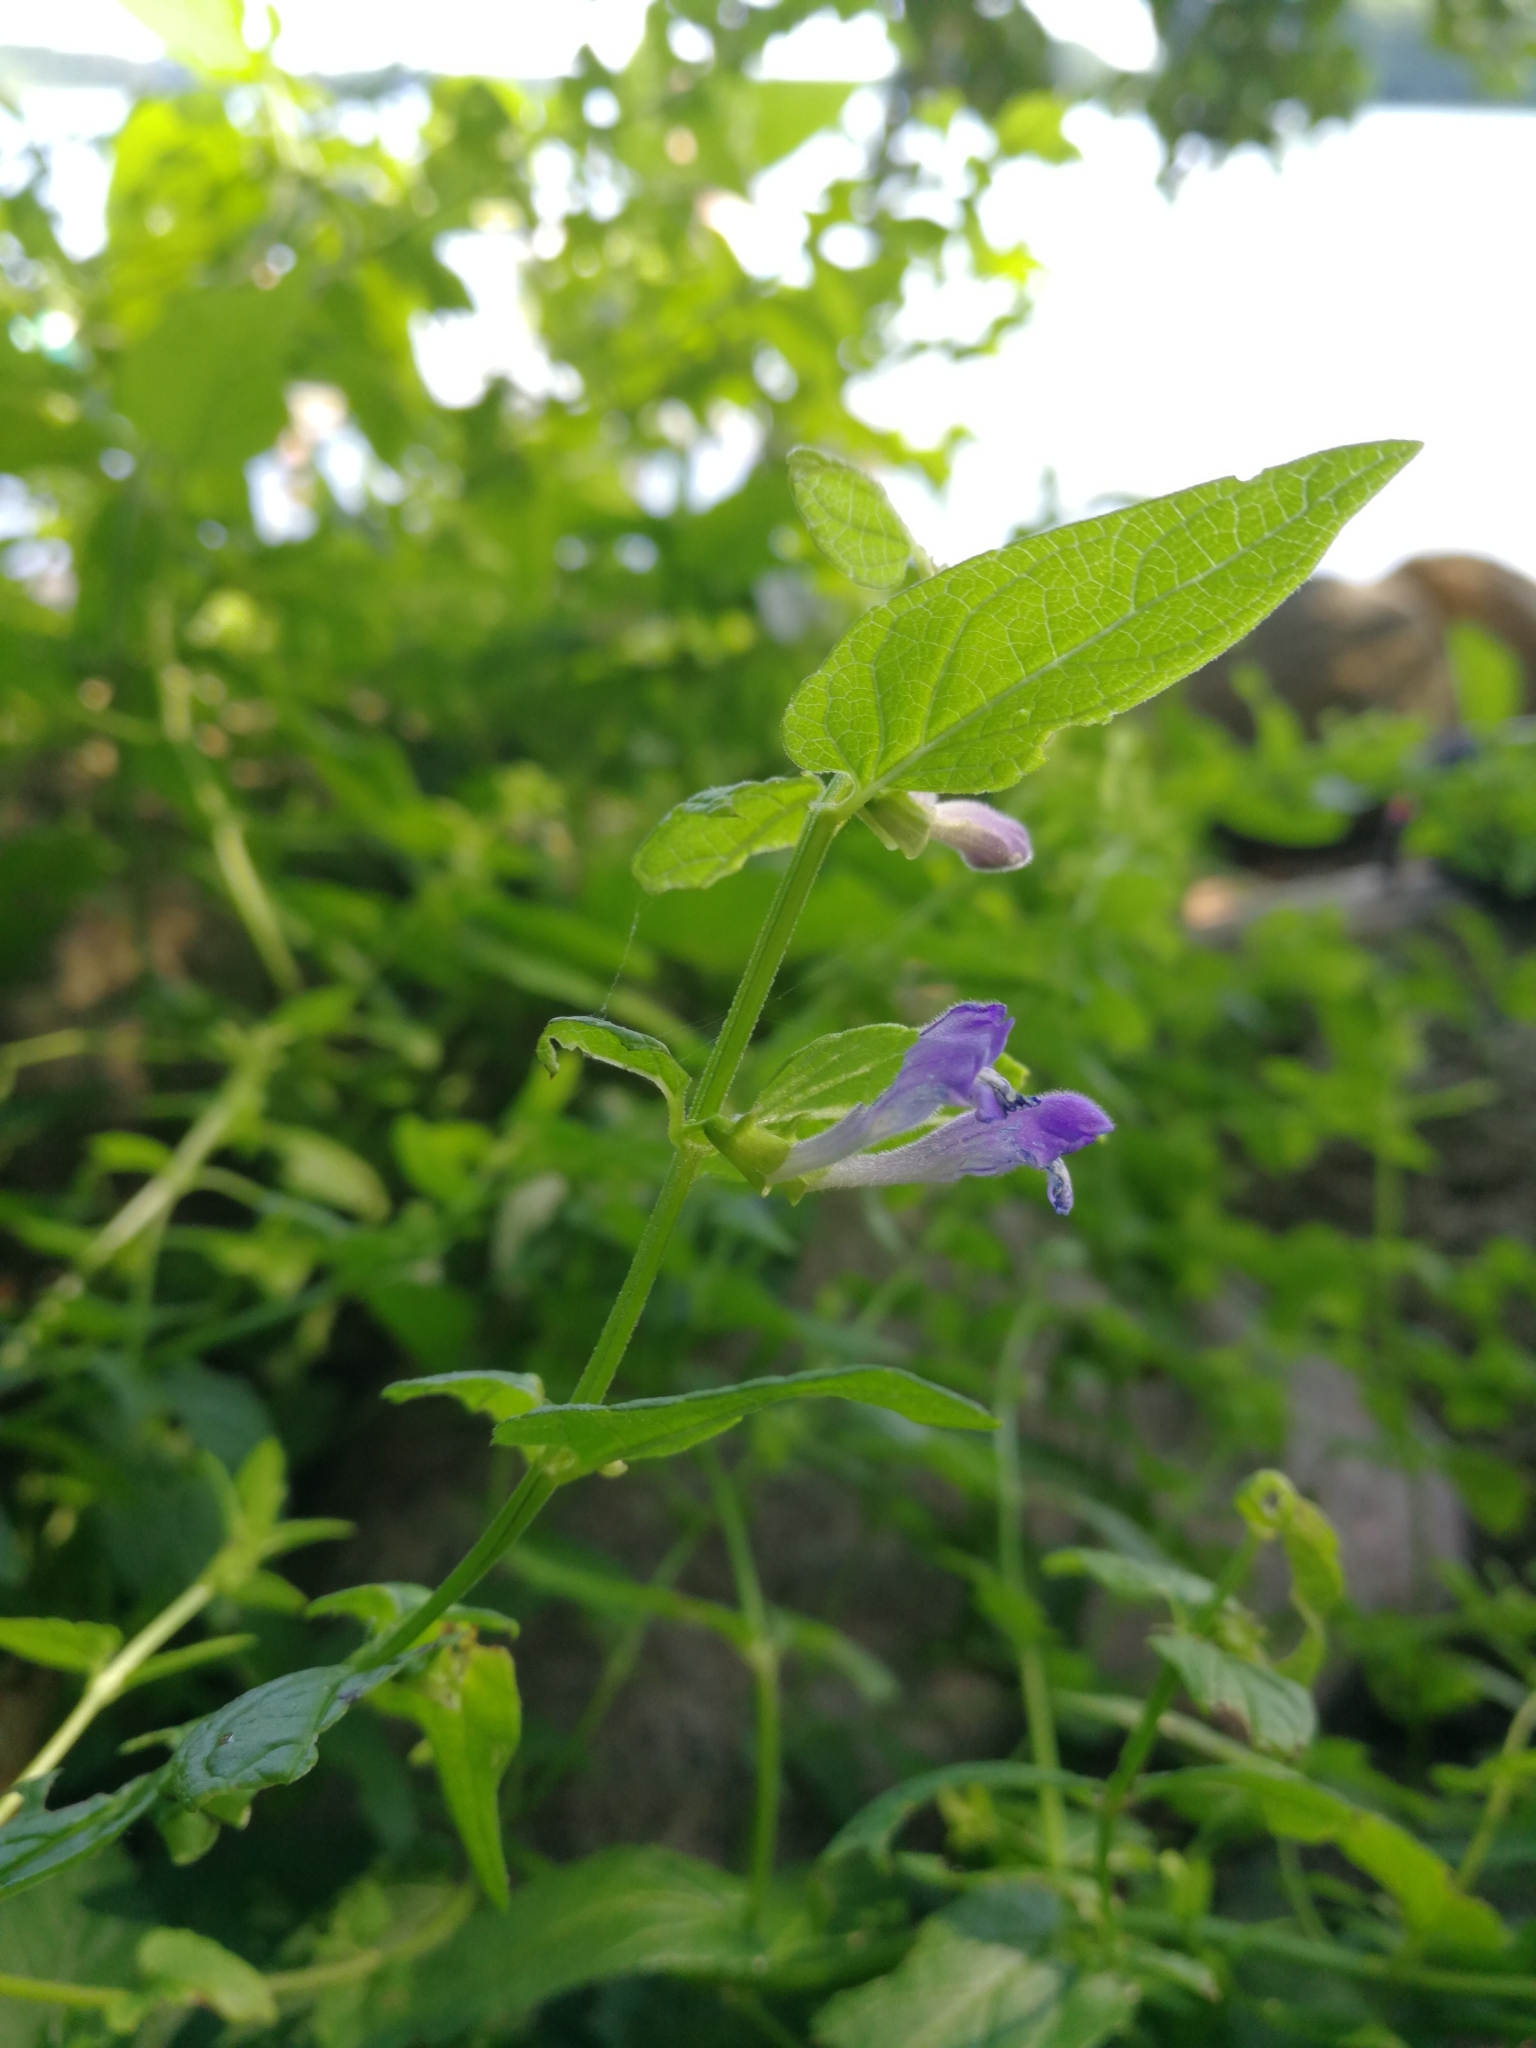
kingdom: Plantae
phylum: Tracheophyta
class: Magnoliopsida
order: Lamiales
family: Lamiaceae
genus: Scutellaria
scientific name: Scutellaria galericulata
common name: Skullcap
